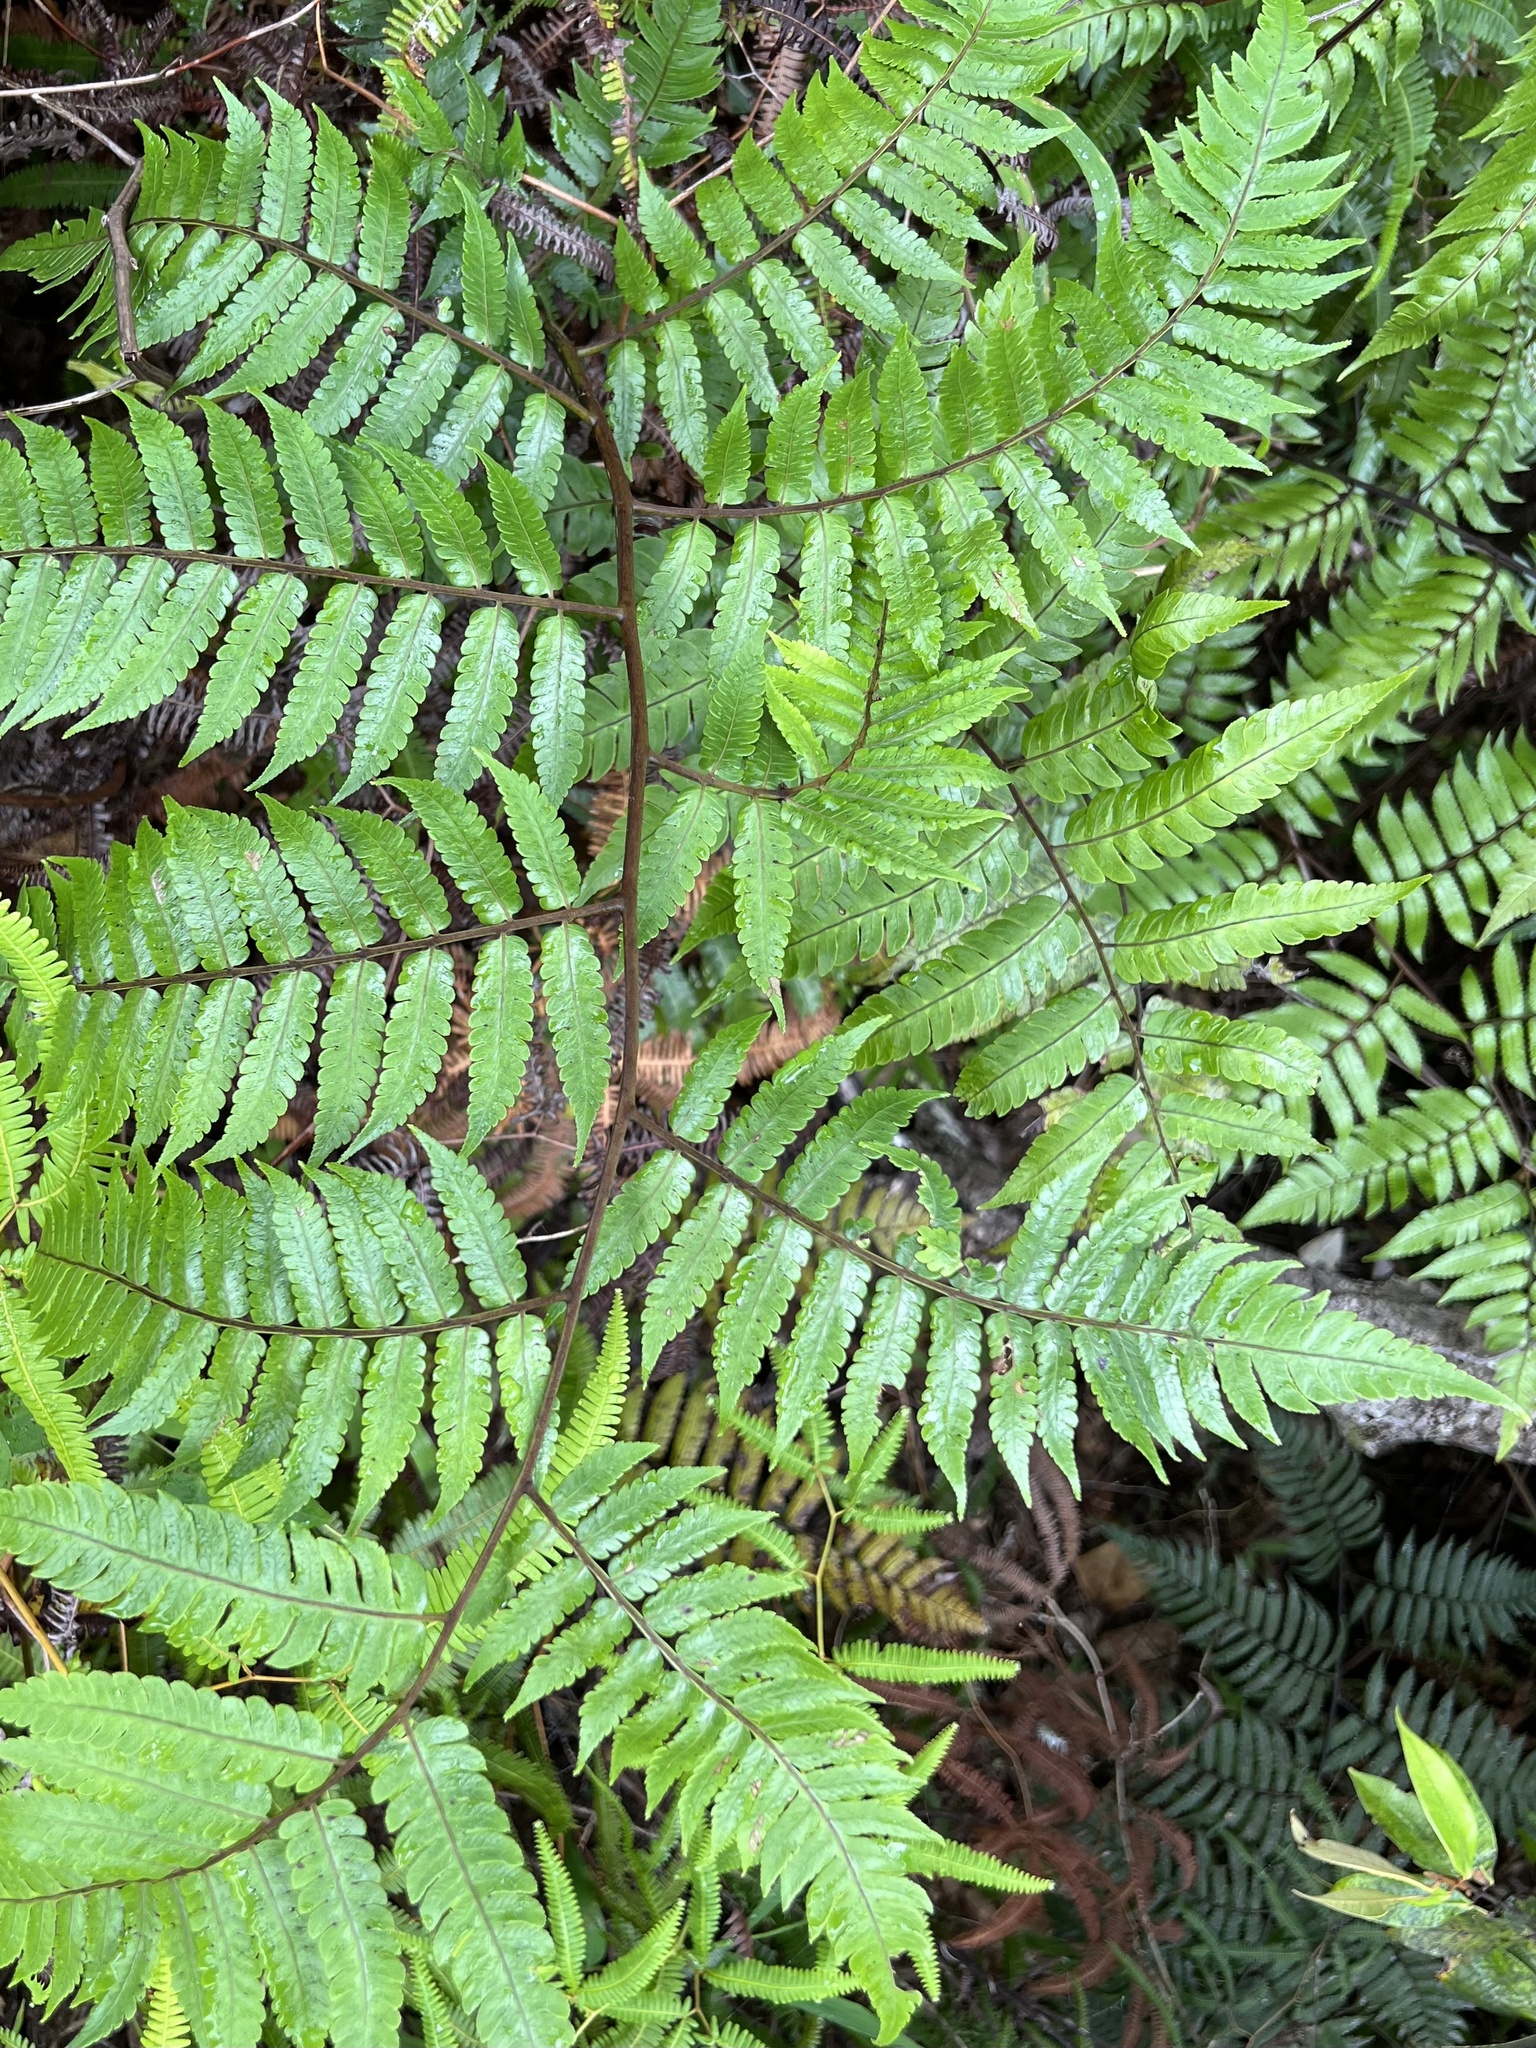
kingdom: Plantae
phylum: Tracheophyta
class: Polypodiopsida
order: Cyatheales
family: Cyatheaceae
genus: Cyathea
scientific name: Cyathea borinquena
